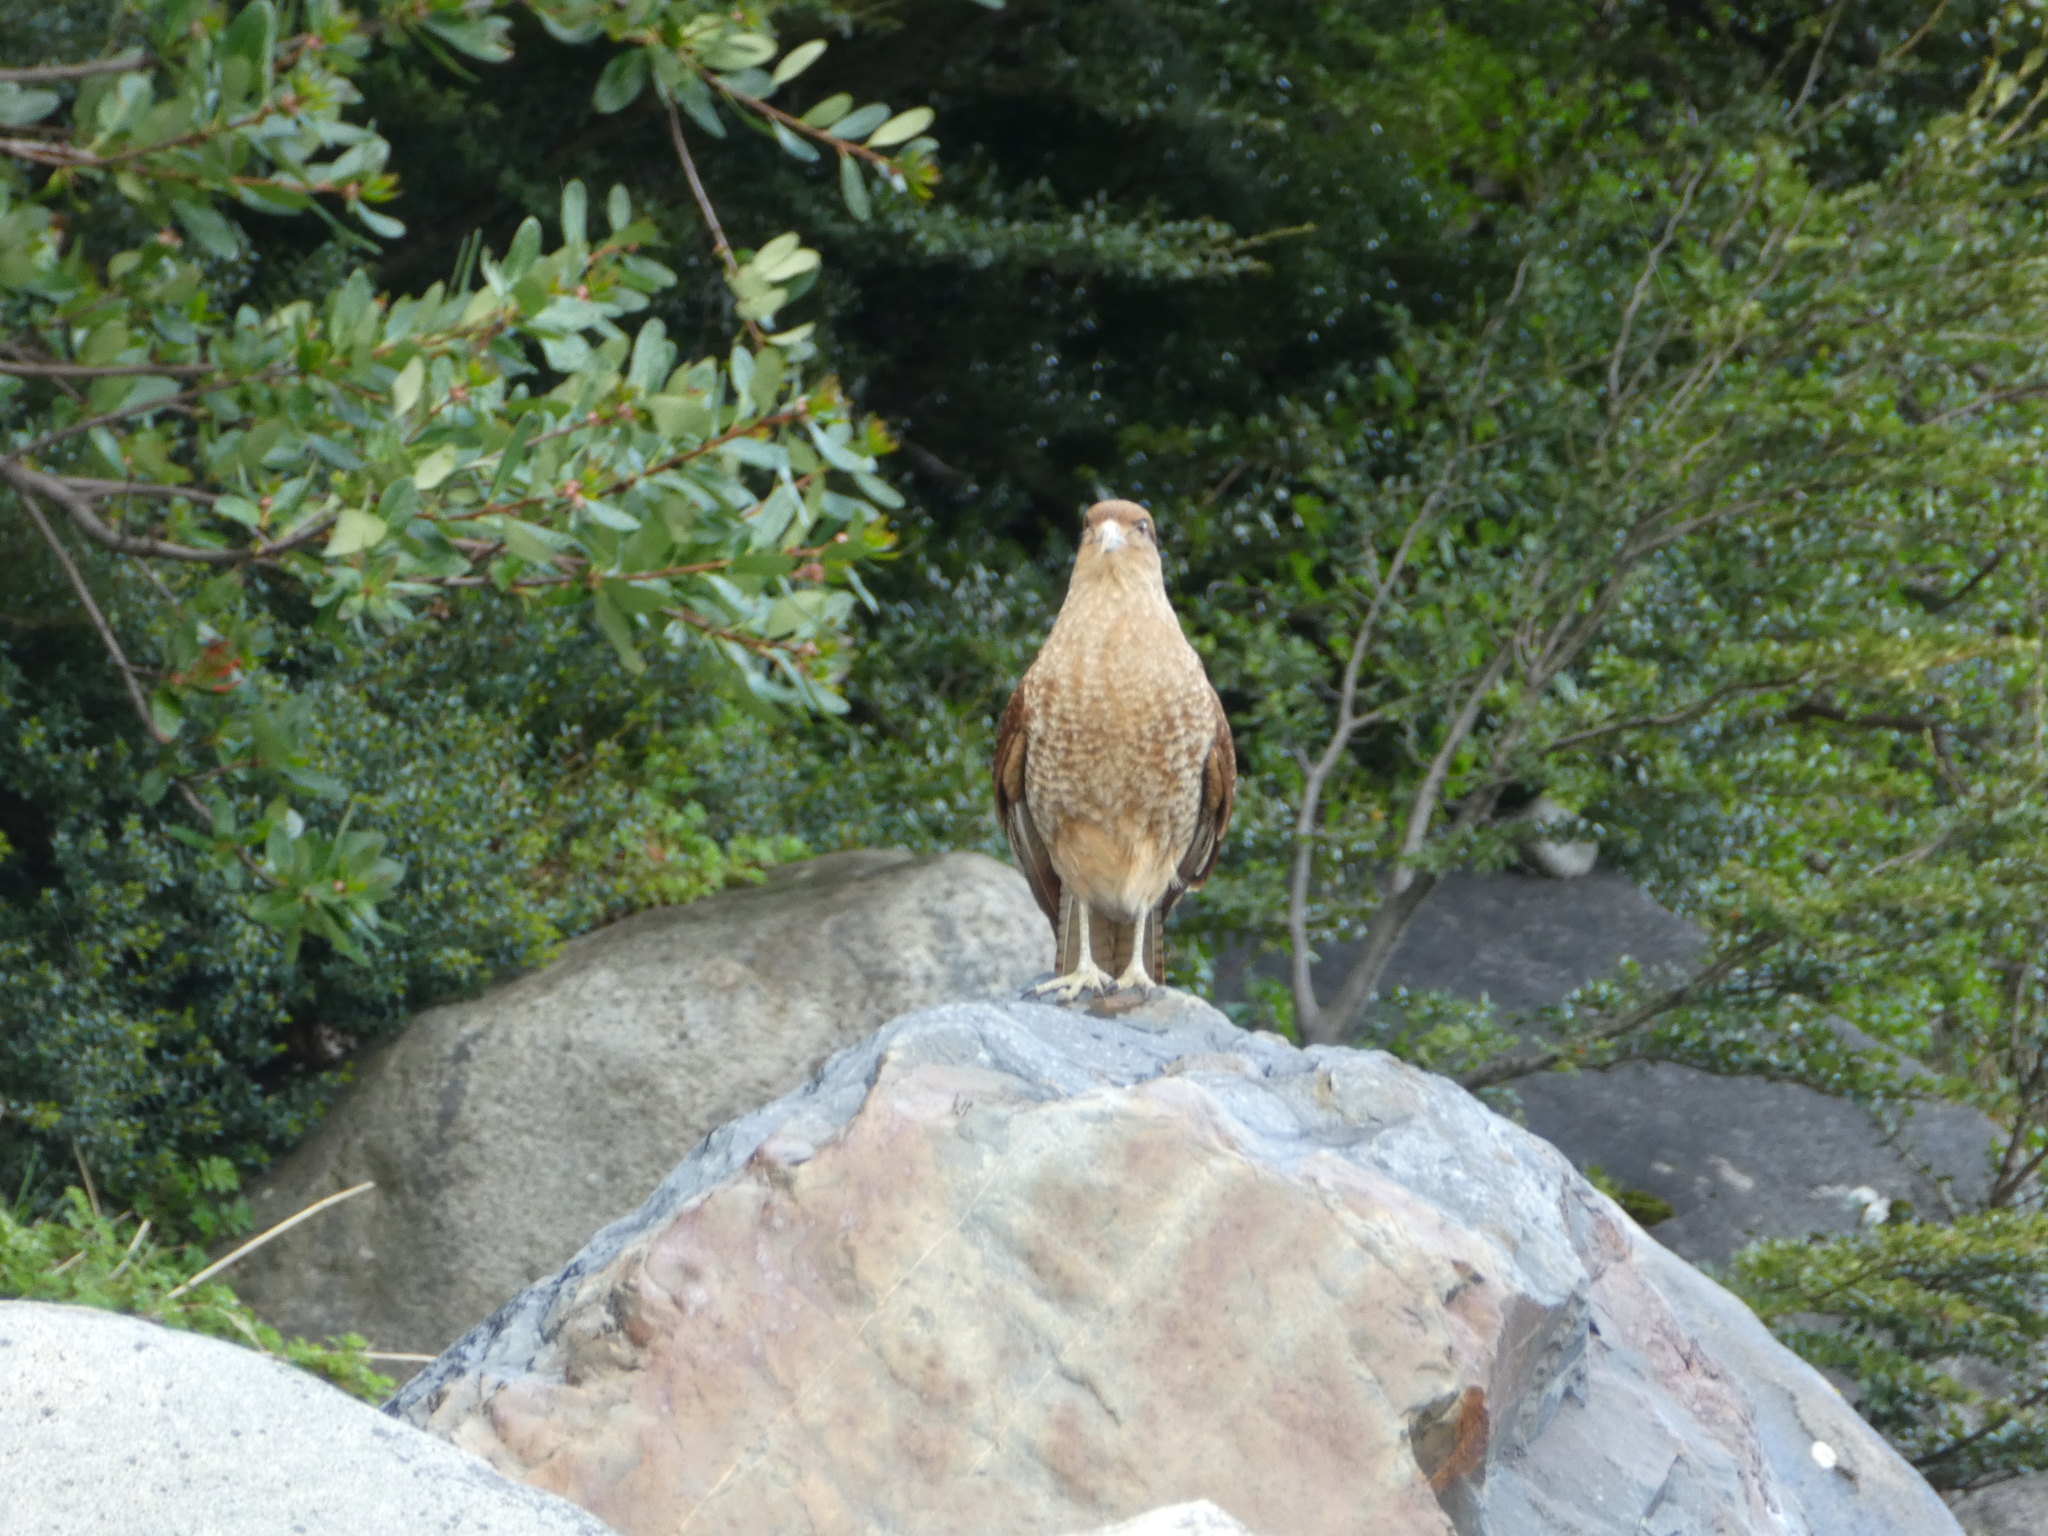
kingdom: Animalia
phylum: Chordata
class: Aves
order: Falconiformes
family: Falconidae
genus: Daptrius
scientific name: Daptrius
